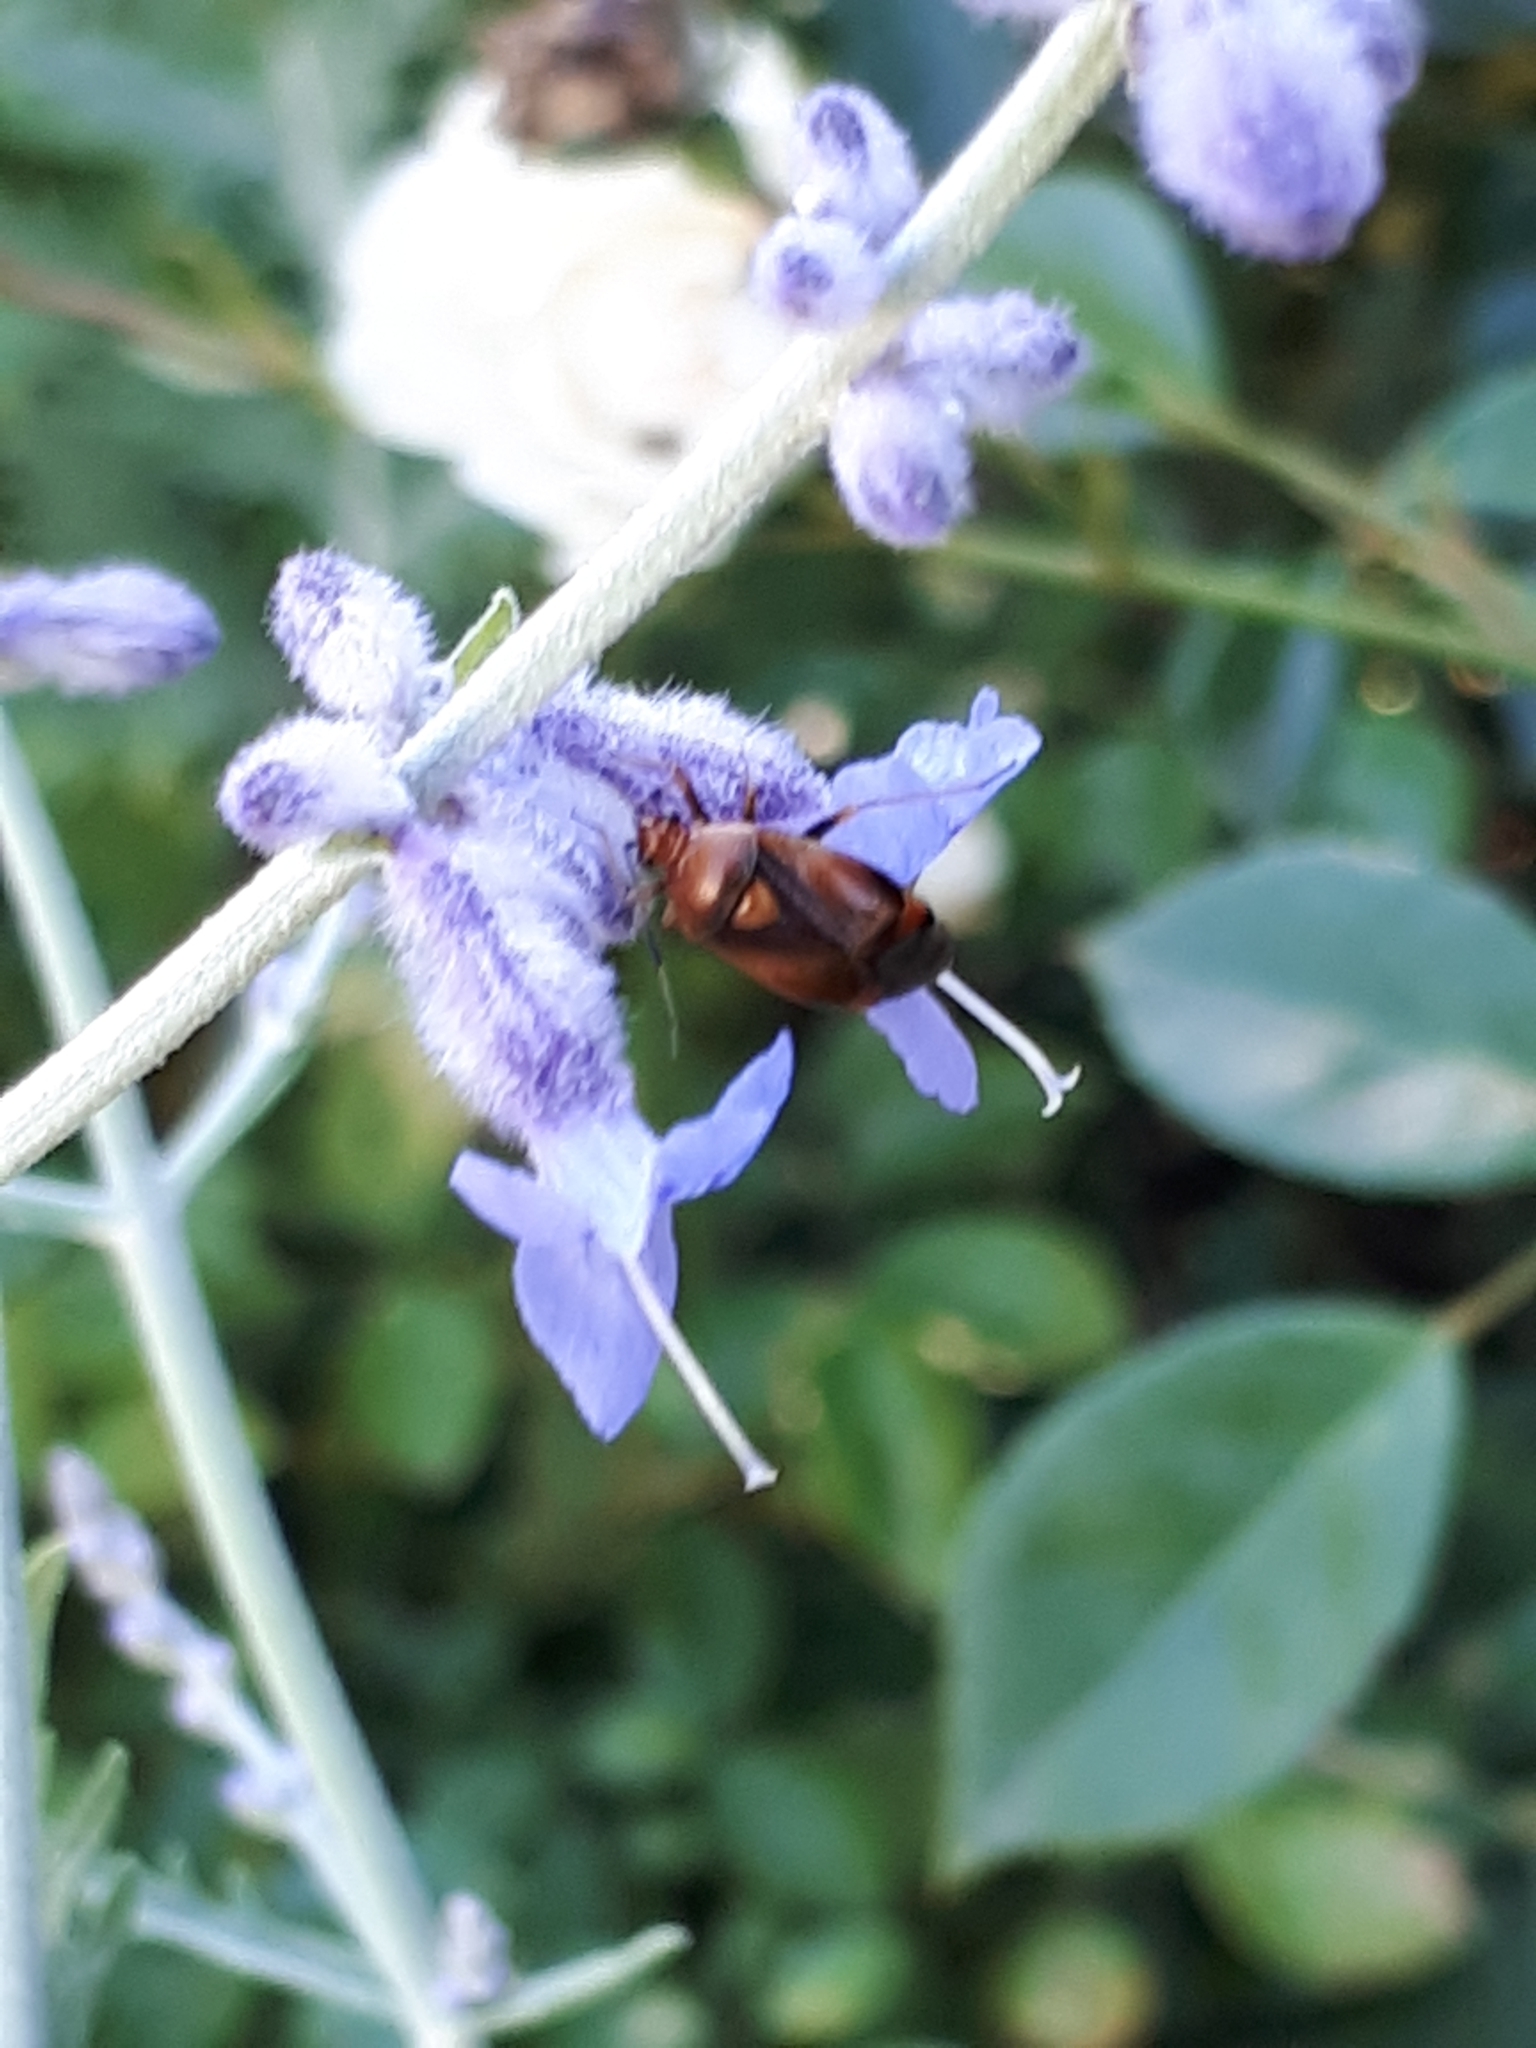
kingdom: Animalia
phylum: Arthropoda
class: Insecta
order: Hemiptera
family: Miridae
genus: Deraeocoris
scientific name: Deraeocoris ruber
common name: Plant bug
